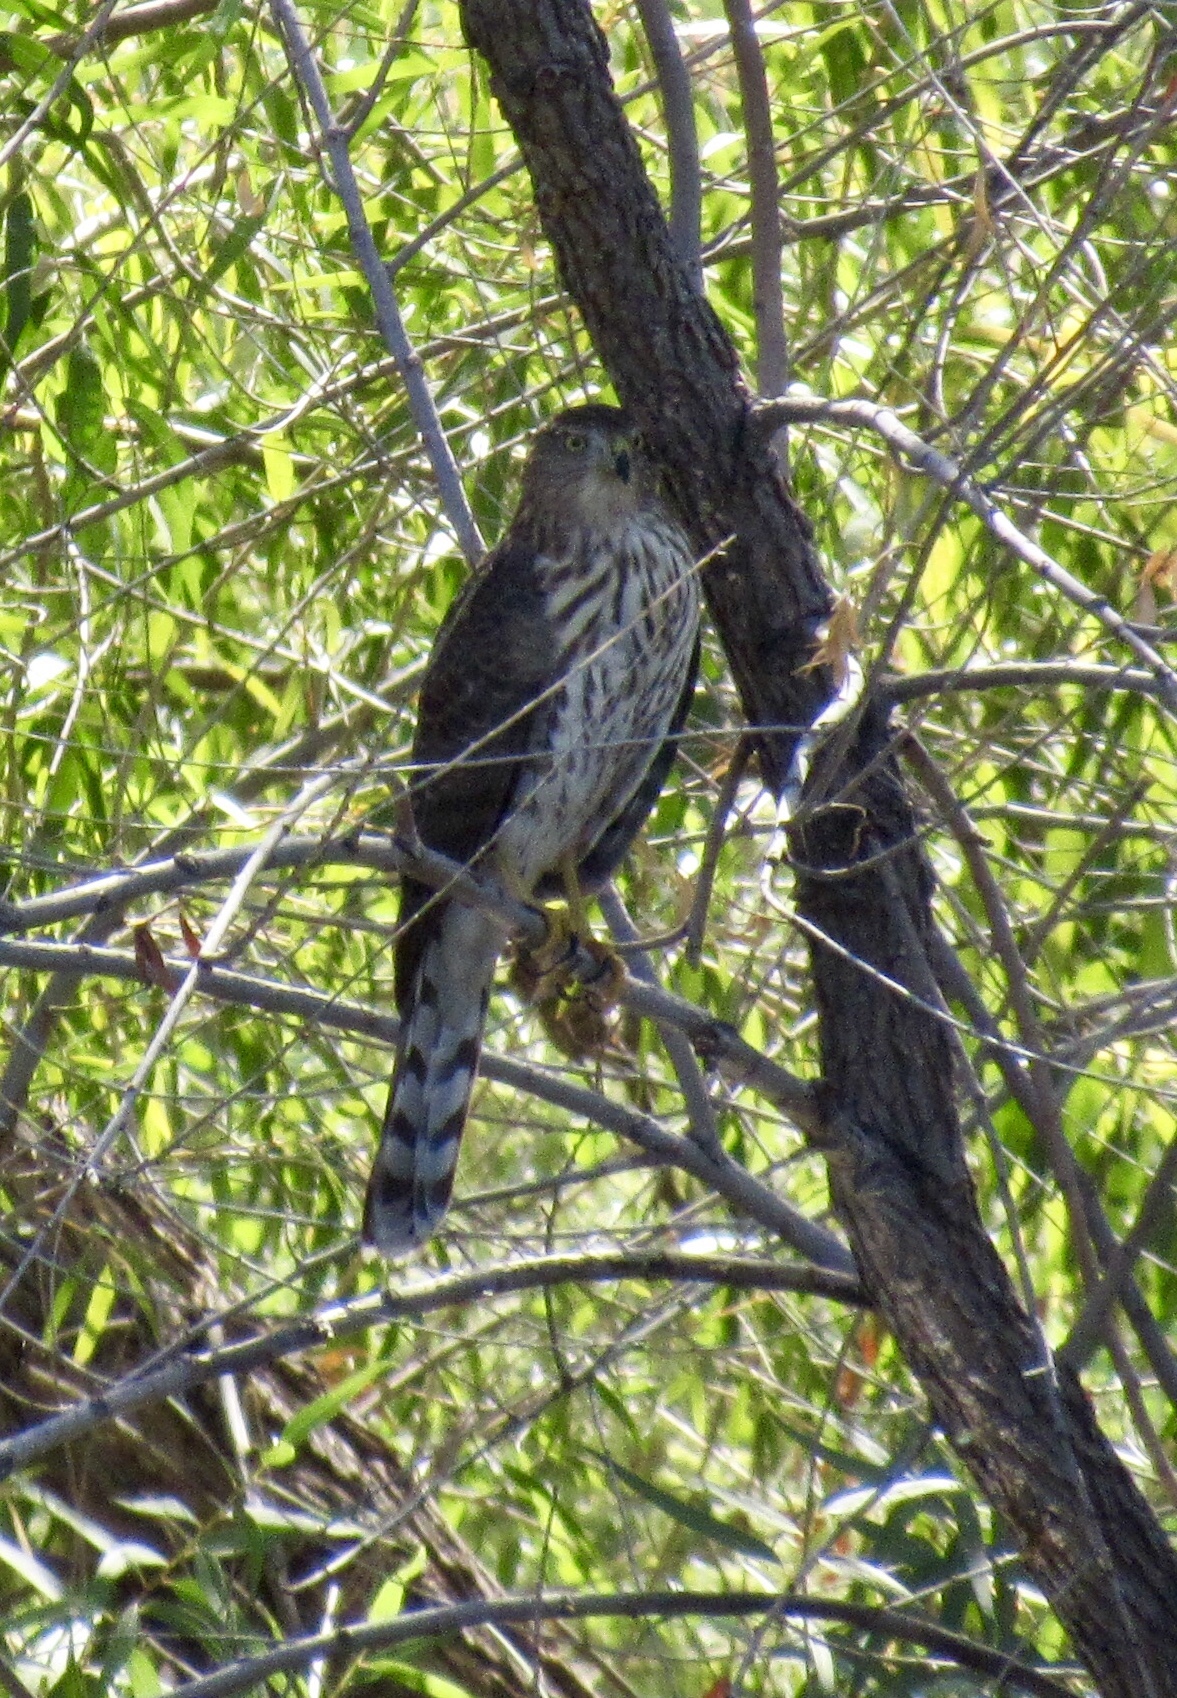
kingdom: Animalia
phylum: Chordata
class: Aves
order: Accipitriformes
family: Accipitridae
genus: Accipiter
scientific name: Accipiter cooperii
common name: Cooper's hawk
